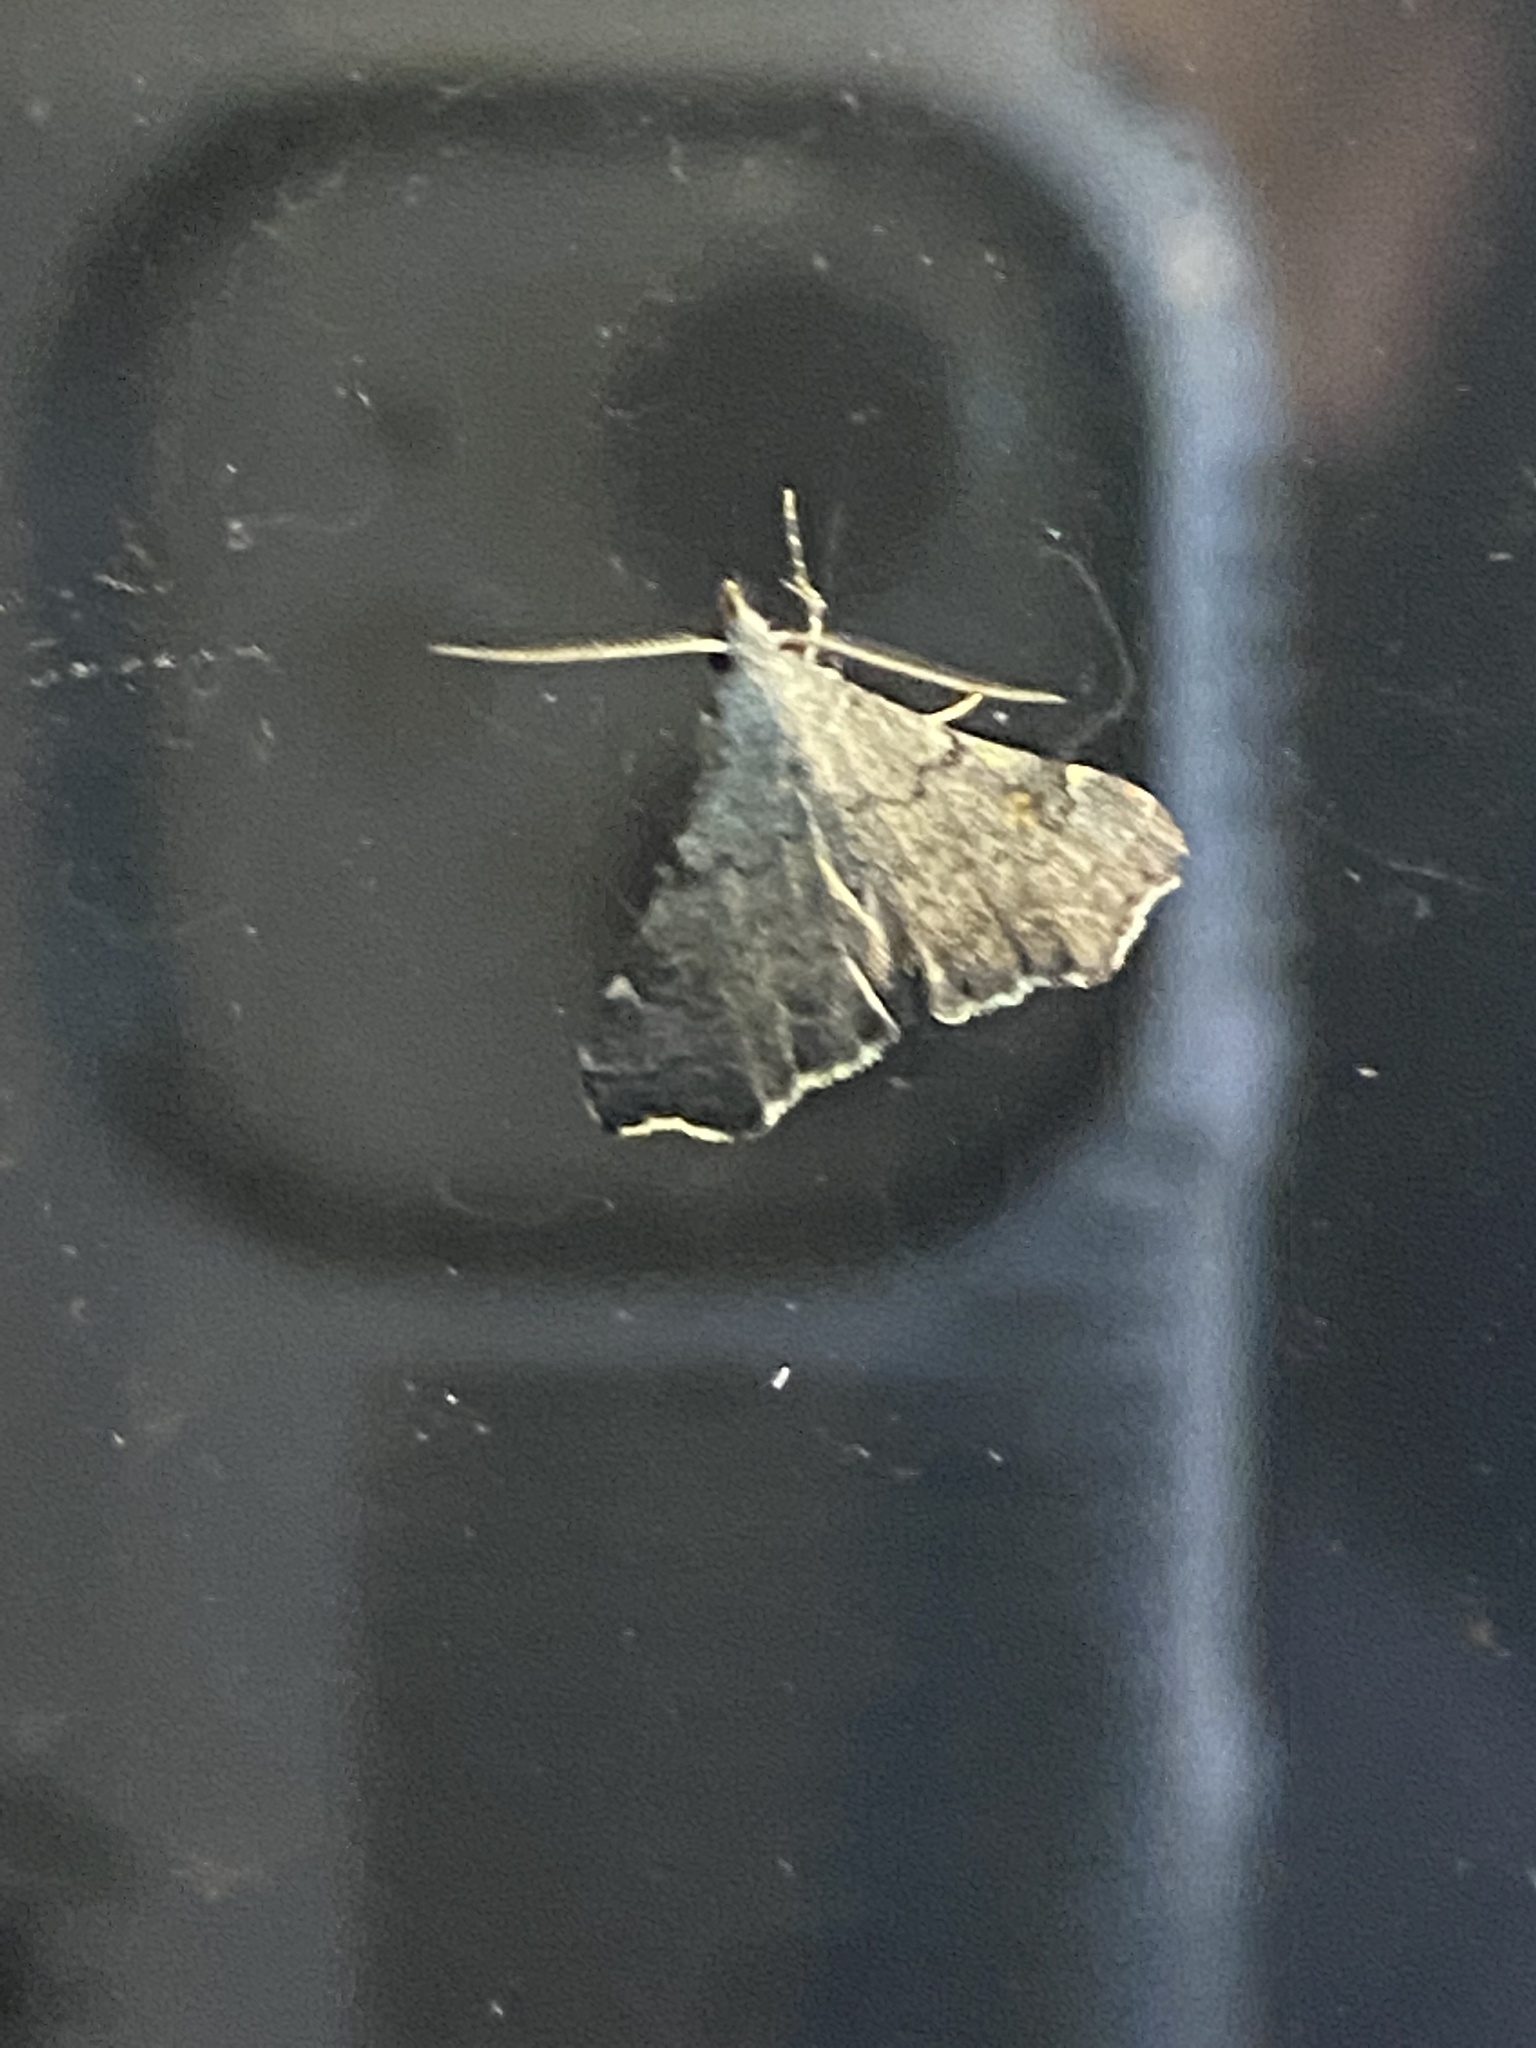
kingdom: Animalia
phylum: Arthropoda
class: Insecta
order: Lepidoptera
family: Erebidae
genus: Redectis
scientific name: Redectis pygmaea
